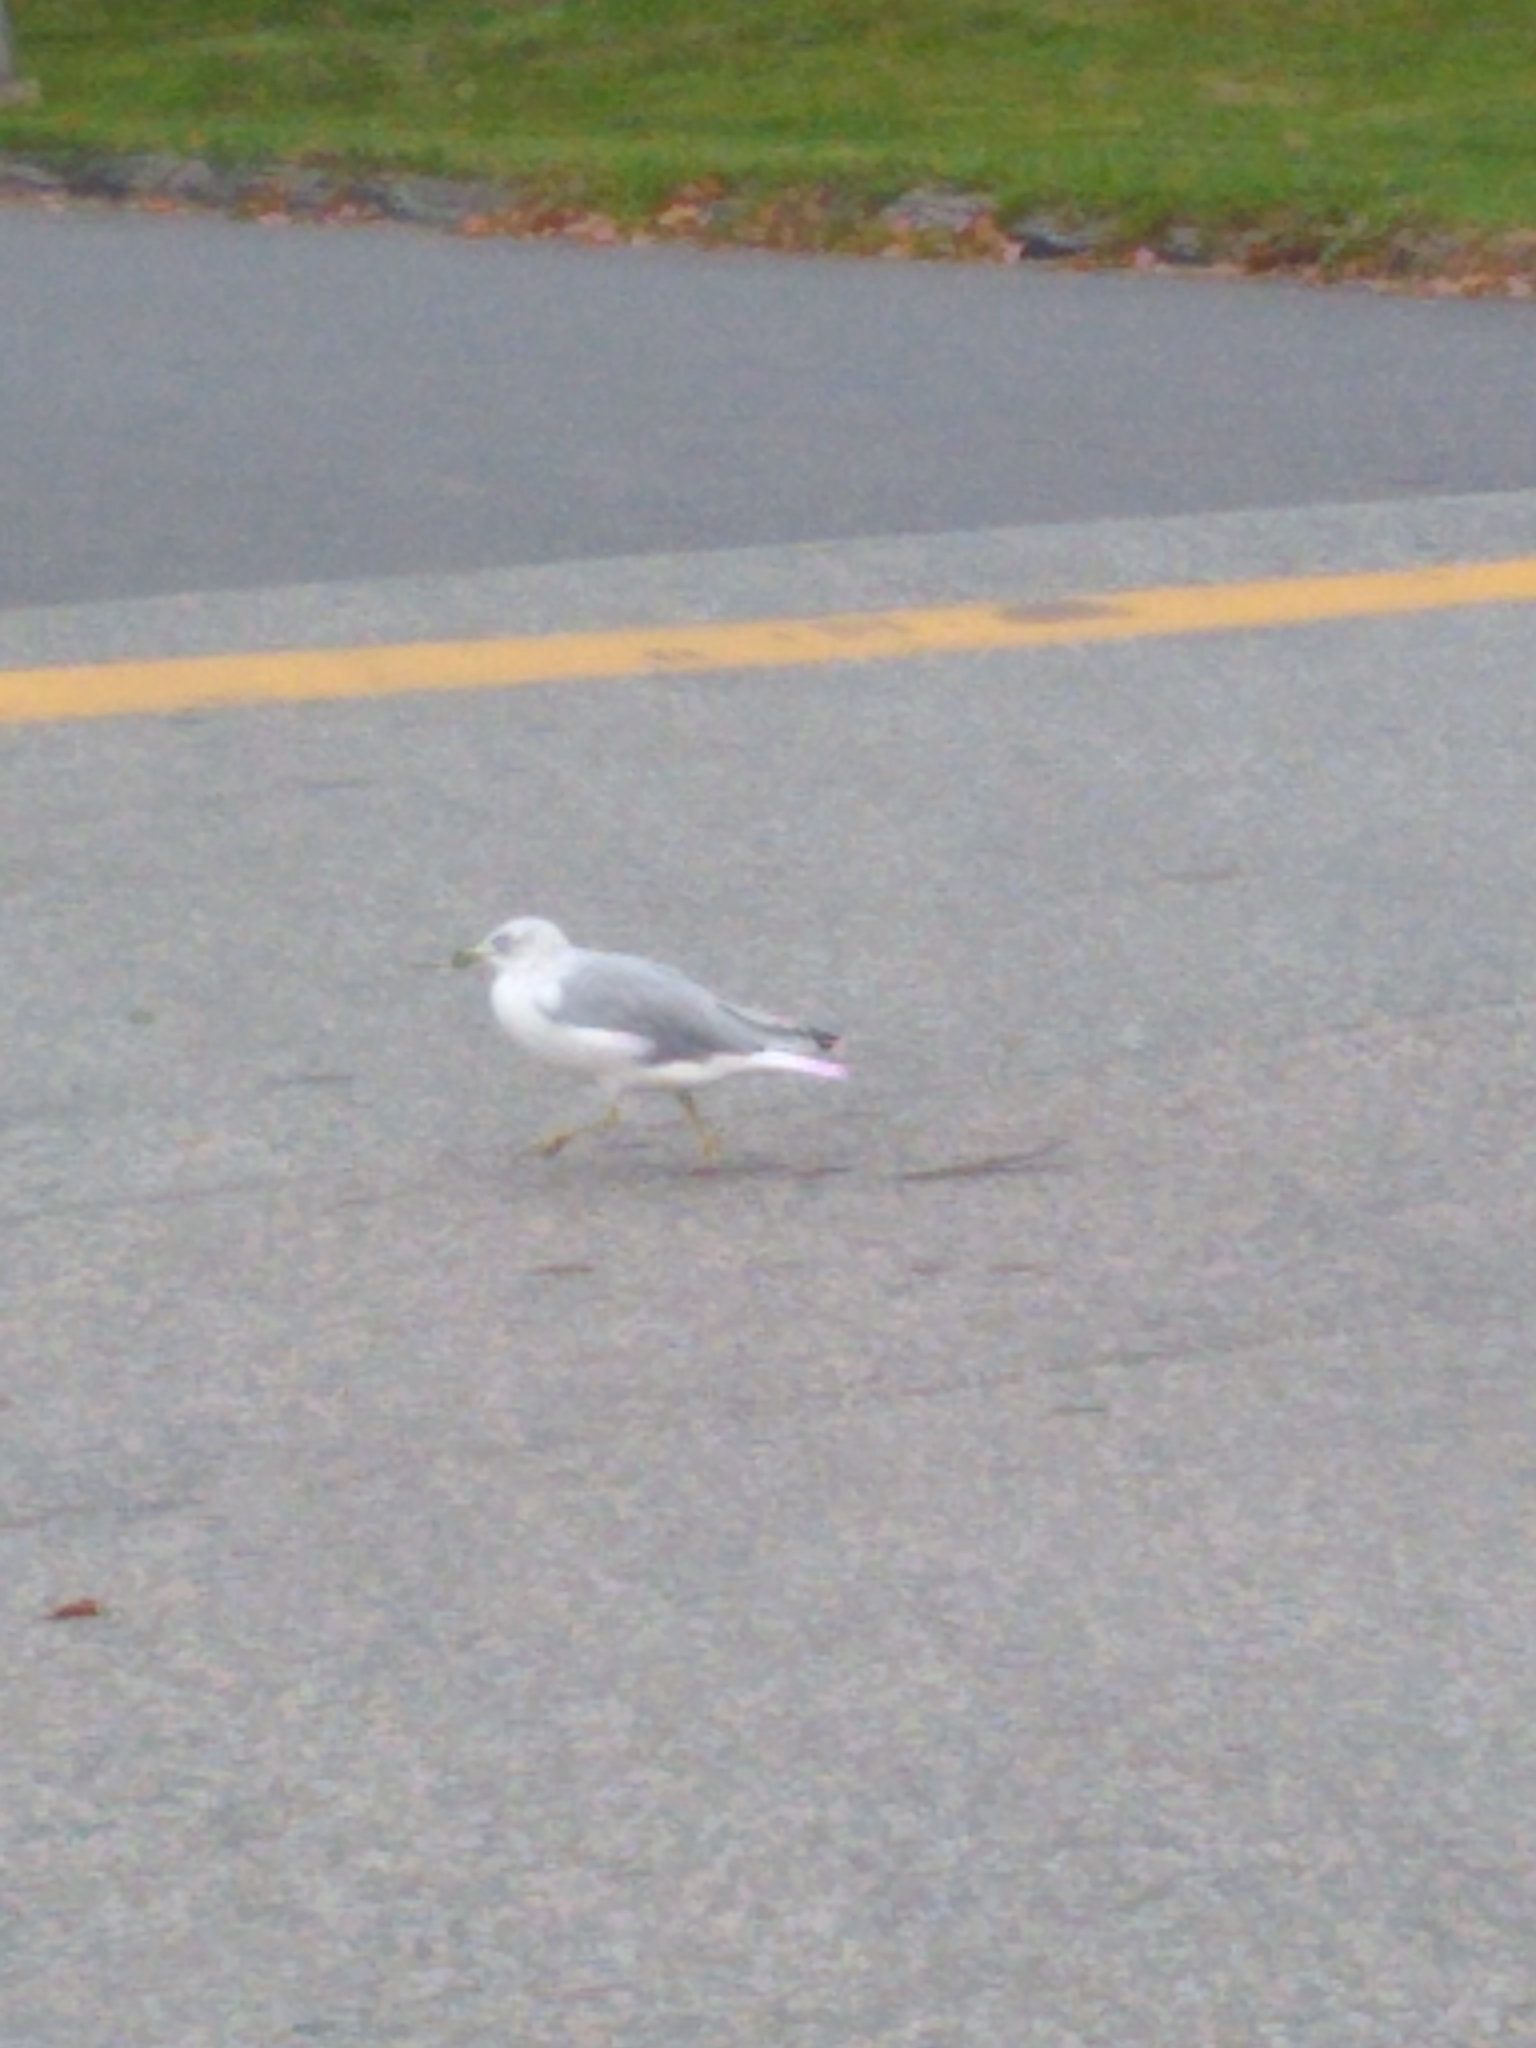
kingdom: Animalia
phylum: Chordata
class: Aves
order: Charadriiformes
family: Laridae
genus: Larus
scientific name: Larus delawarensis
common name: Ring-billed gull
